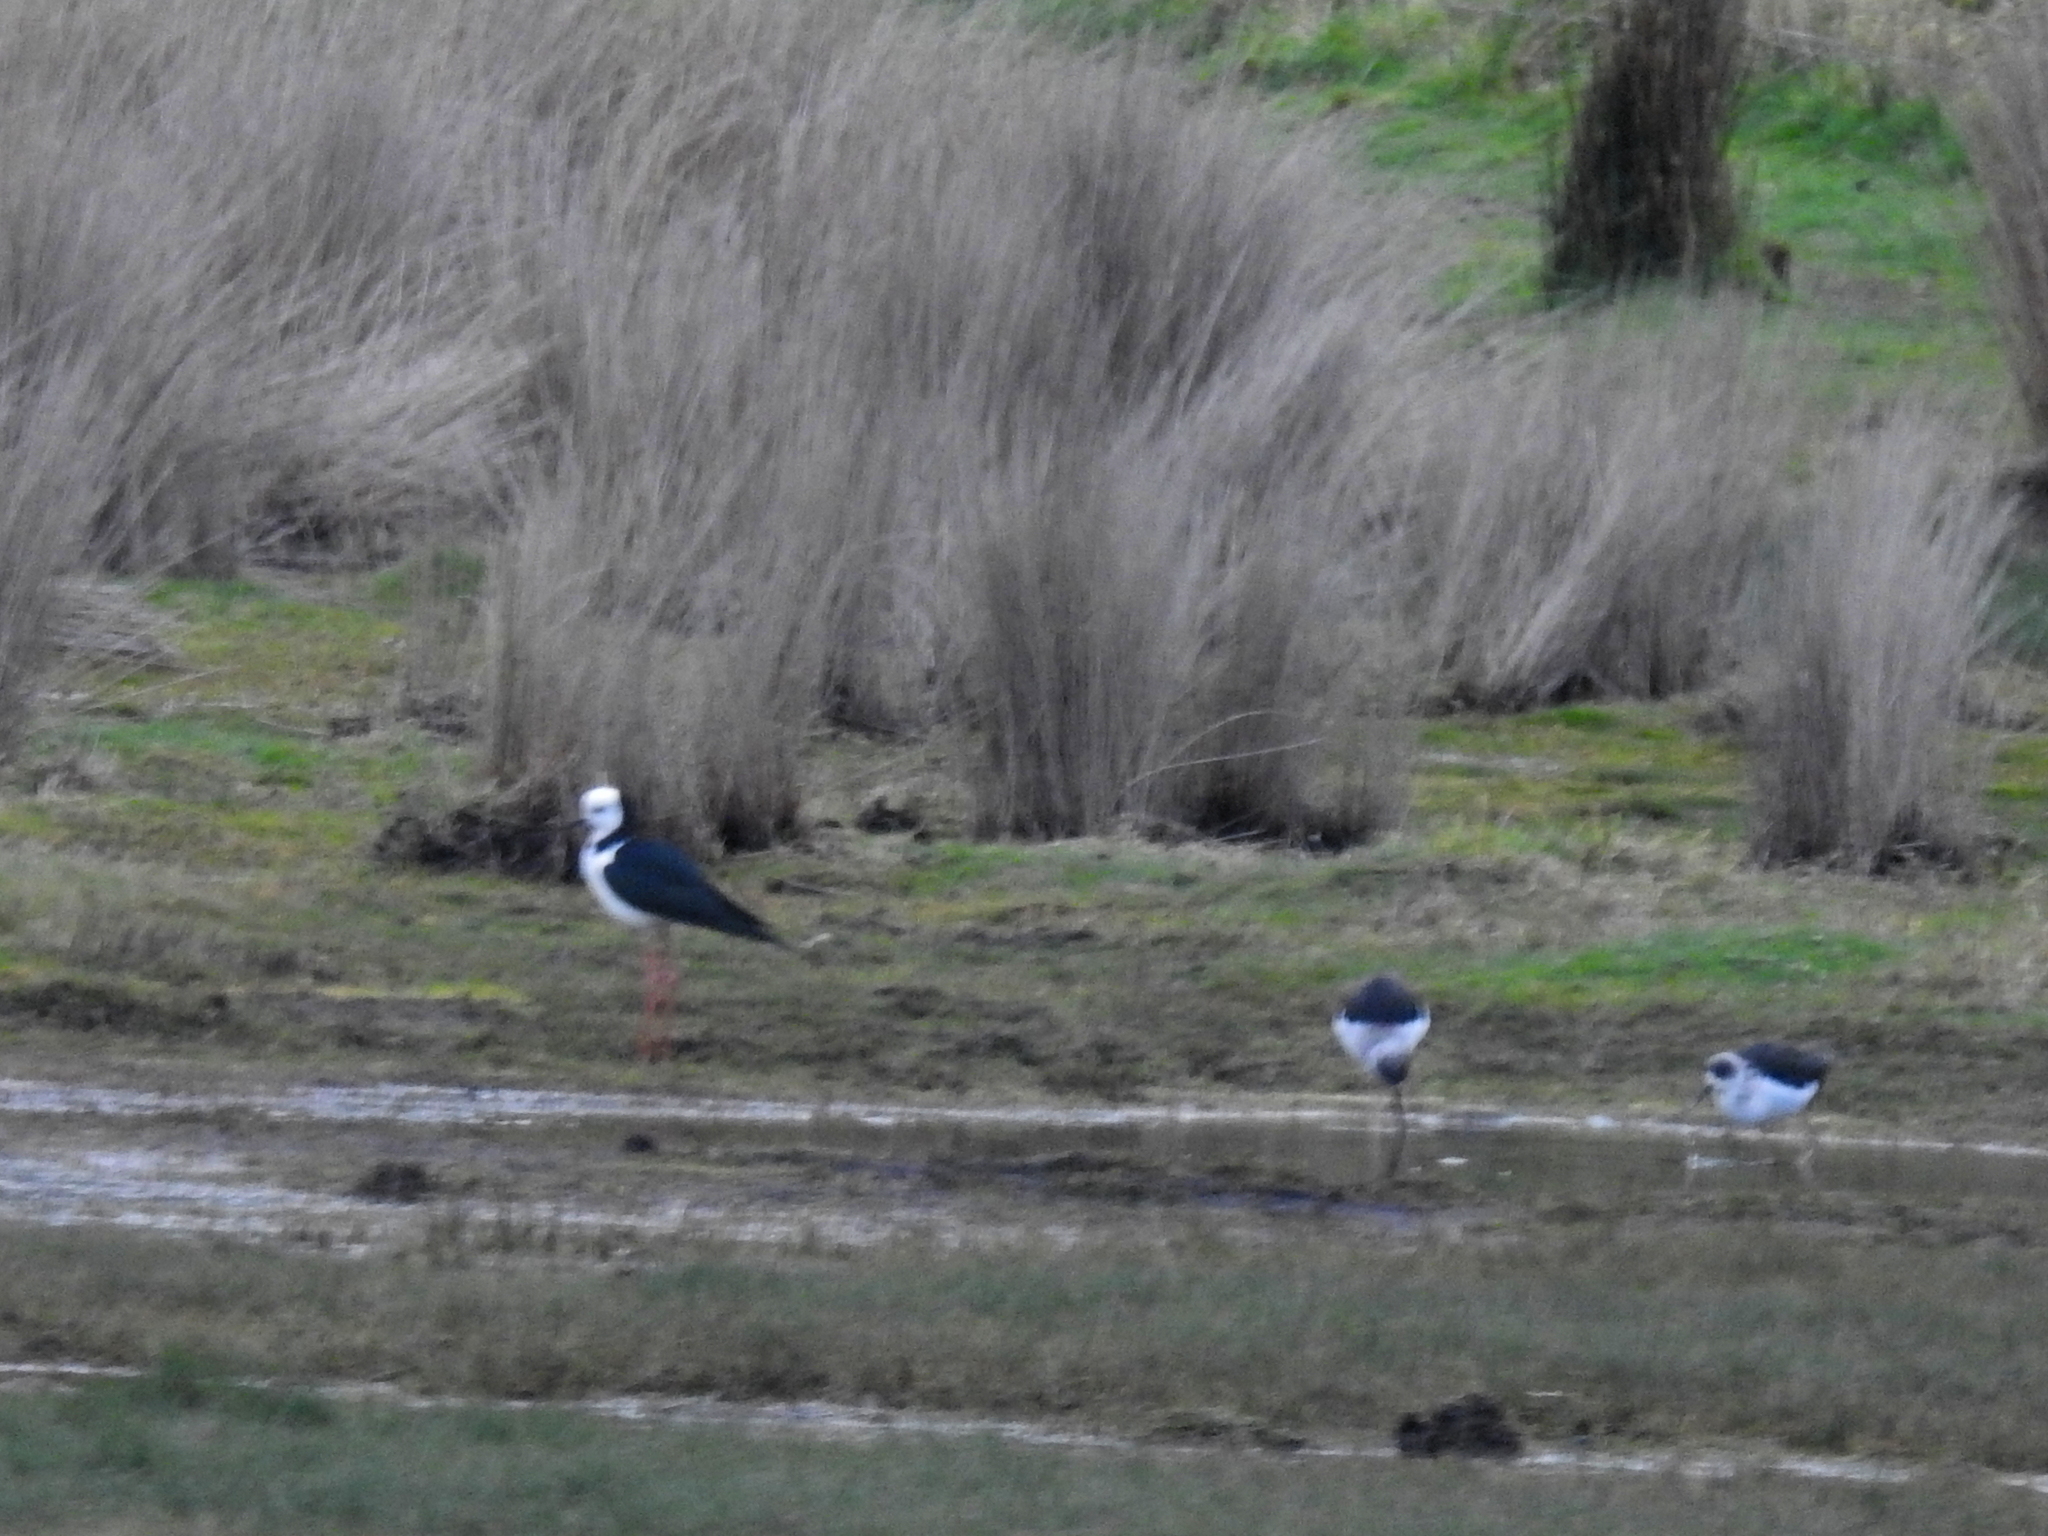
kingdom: Animalia
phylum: Chordata
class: Aves
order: Charadriiformes
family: Recurvirostridae
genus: Himantopus
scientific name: Himantopus leucocephalus
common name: White-headed stilt
